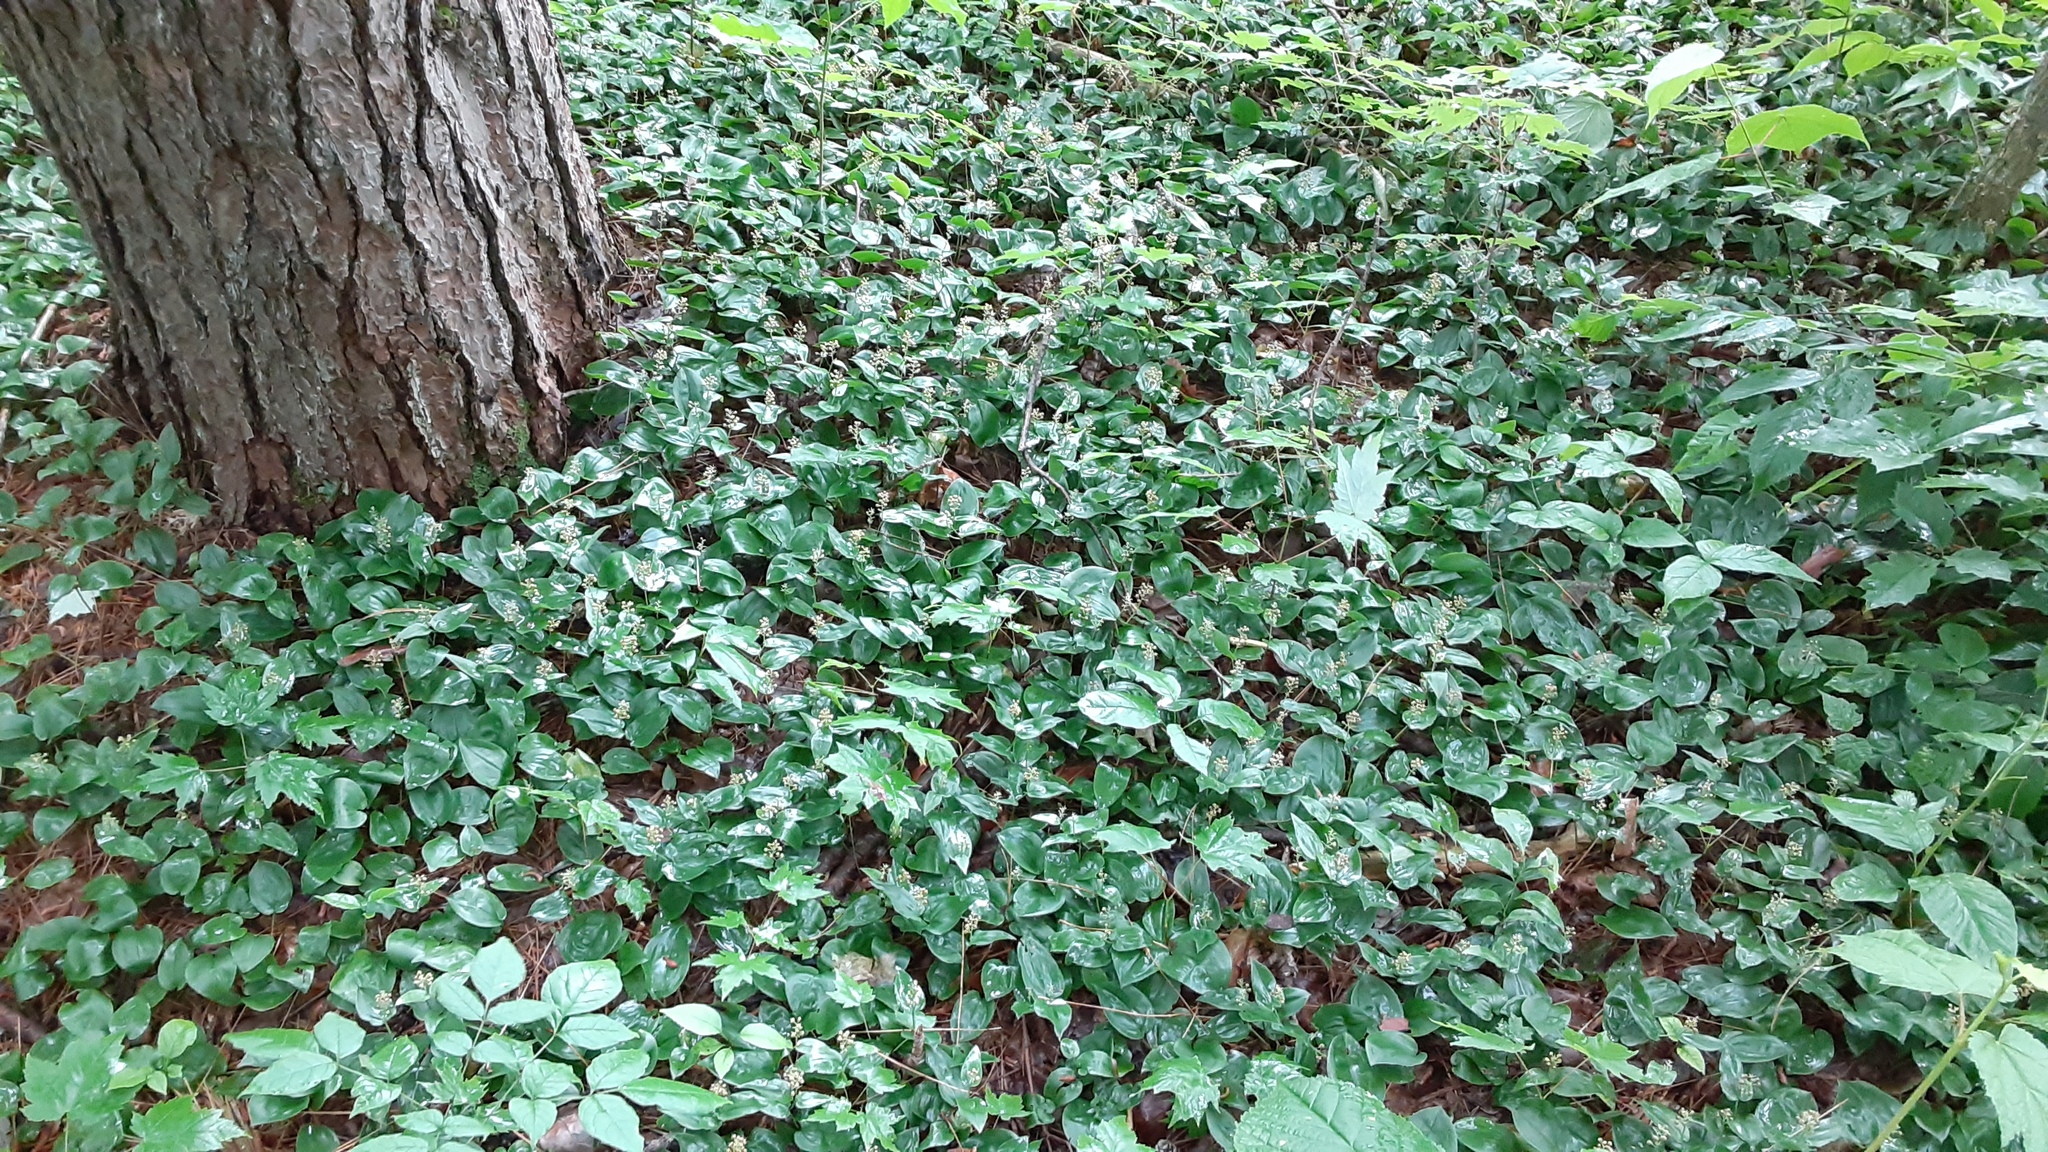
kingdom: Plantae
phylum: Tracheophyta
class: Liliopsida
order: Asparagales
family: Asparagaceae
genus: Maianthemum
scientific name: Maianthemum canadense
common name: False lily-of-the-valley
